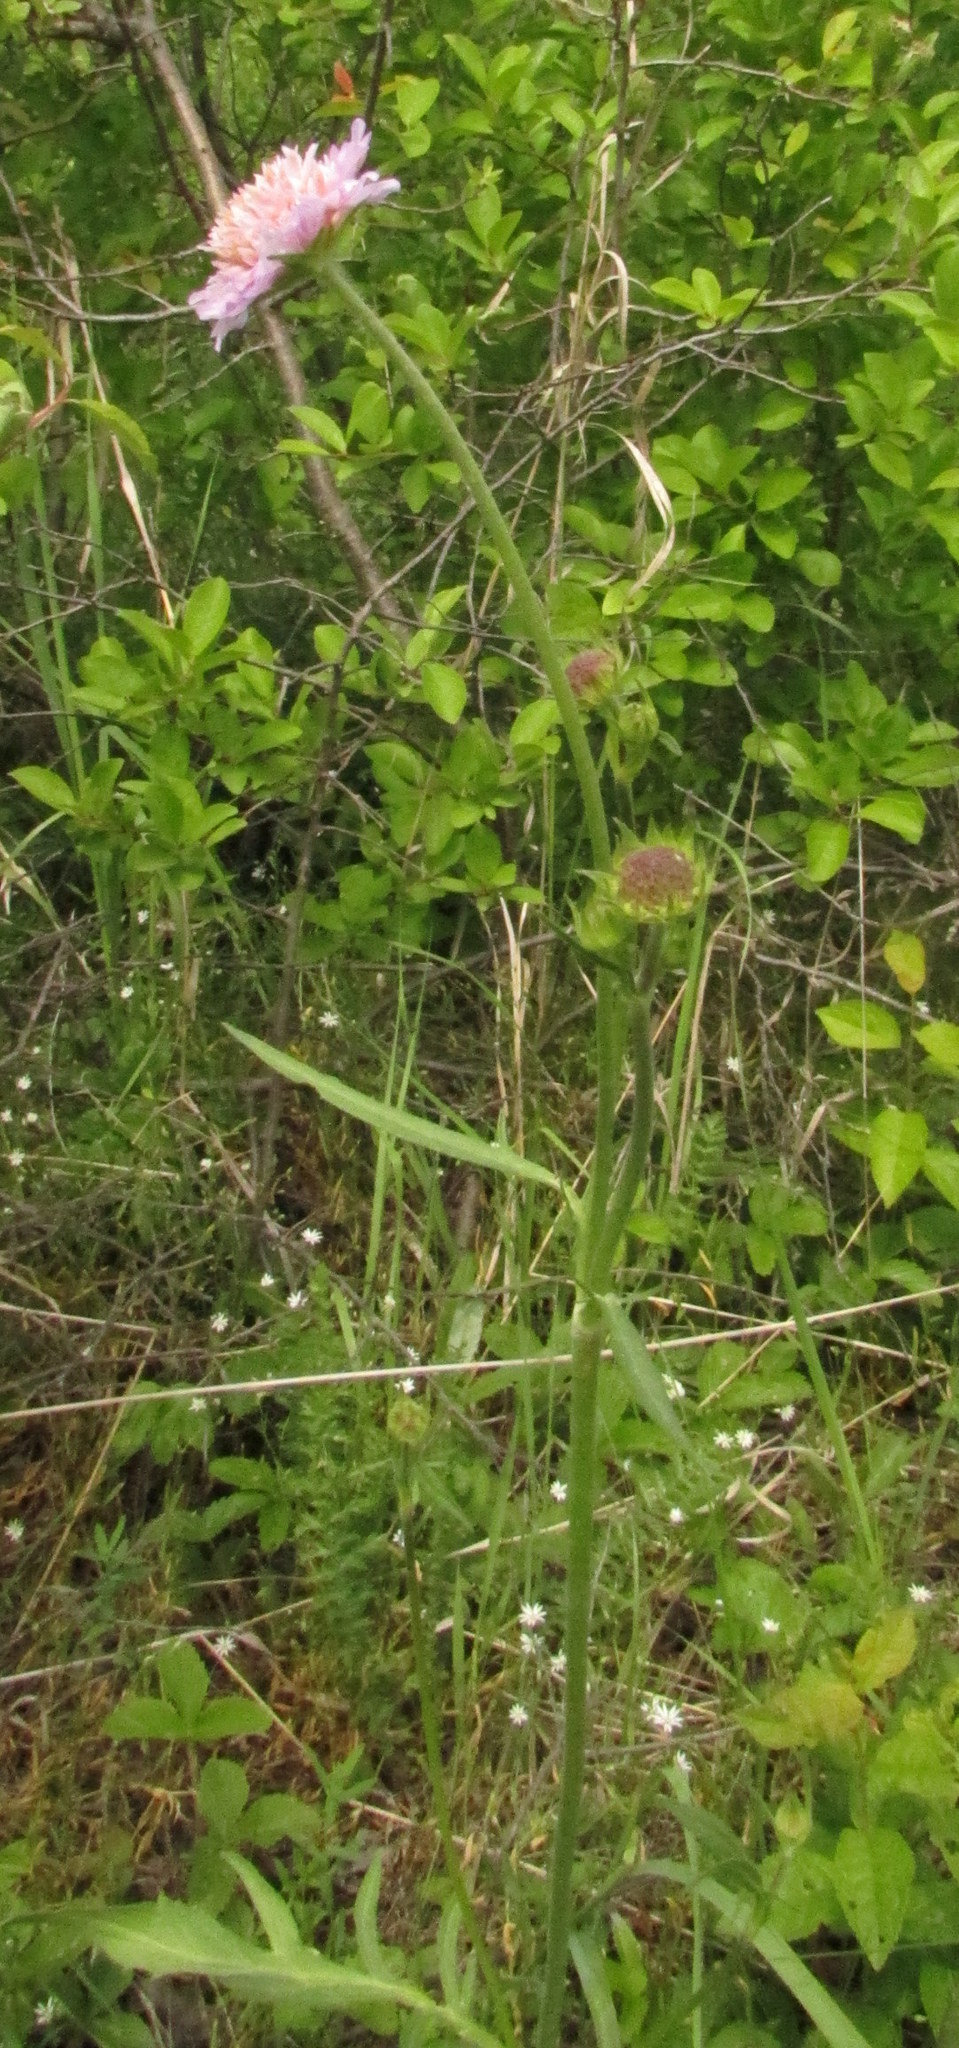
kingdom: Plantae
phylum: Tracheophyta
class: Magnoliopsida
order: Dipsacales
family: Caprifoliaceae
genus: Knautia
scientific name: Knautia arvensis
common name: Field scabiosa
